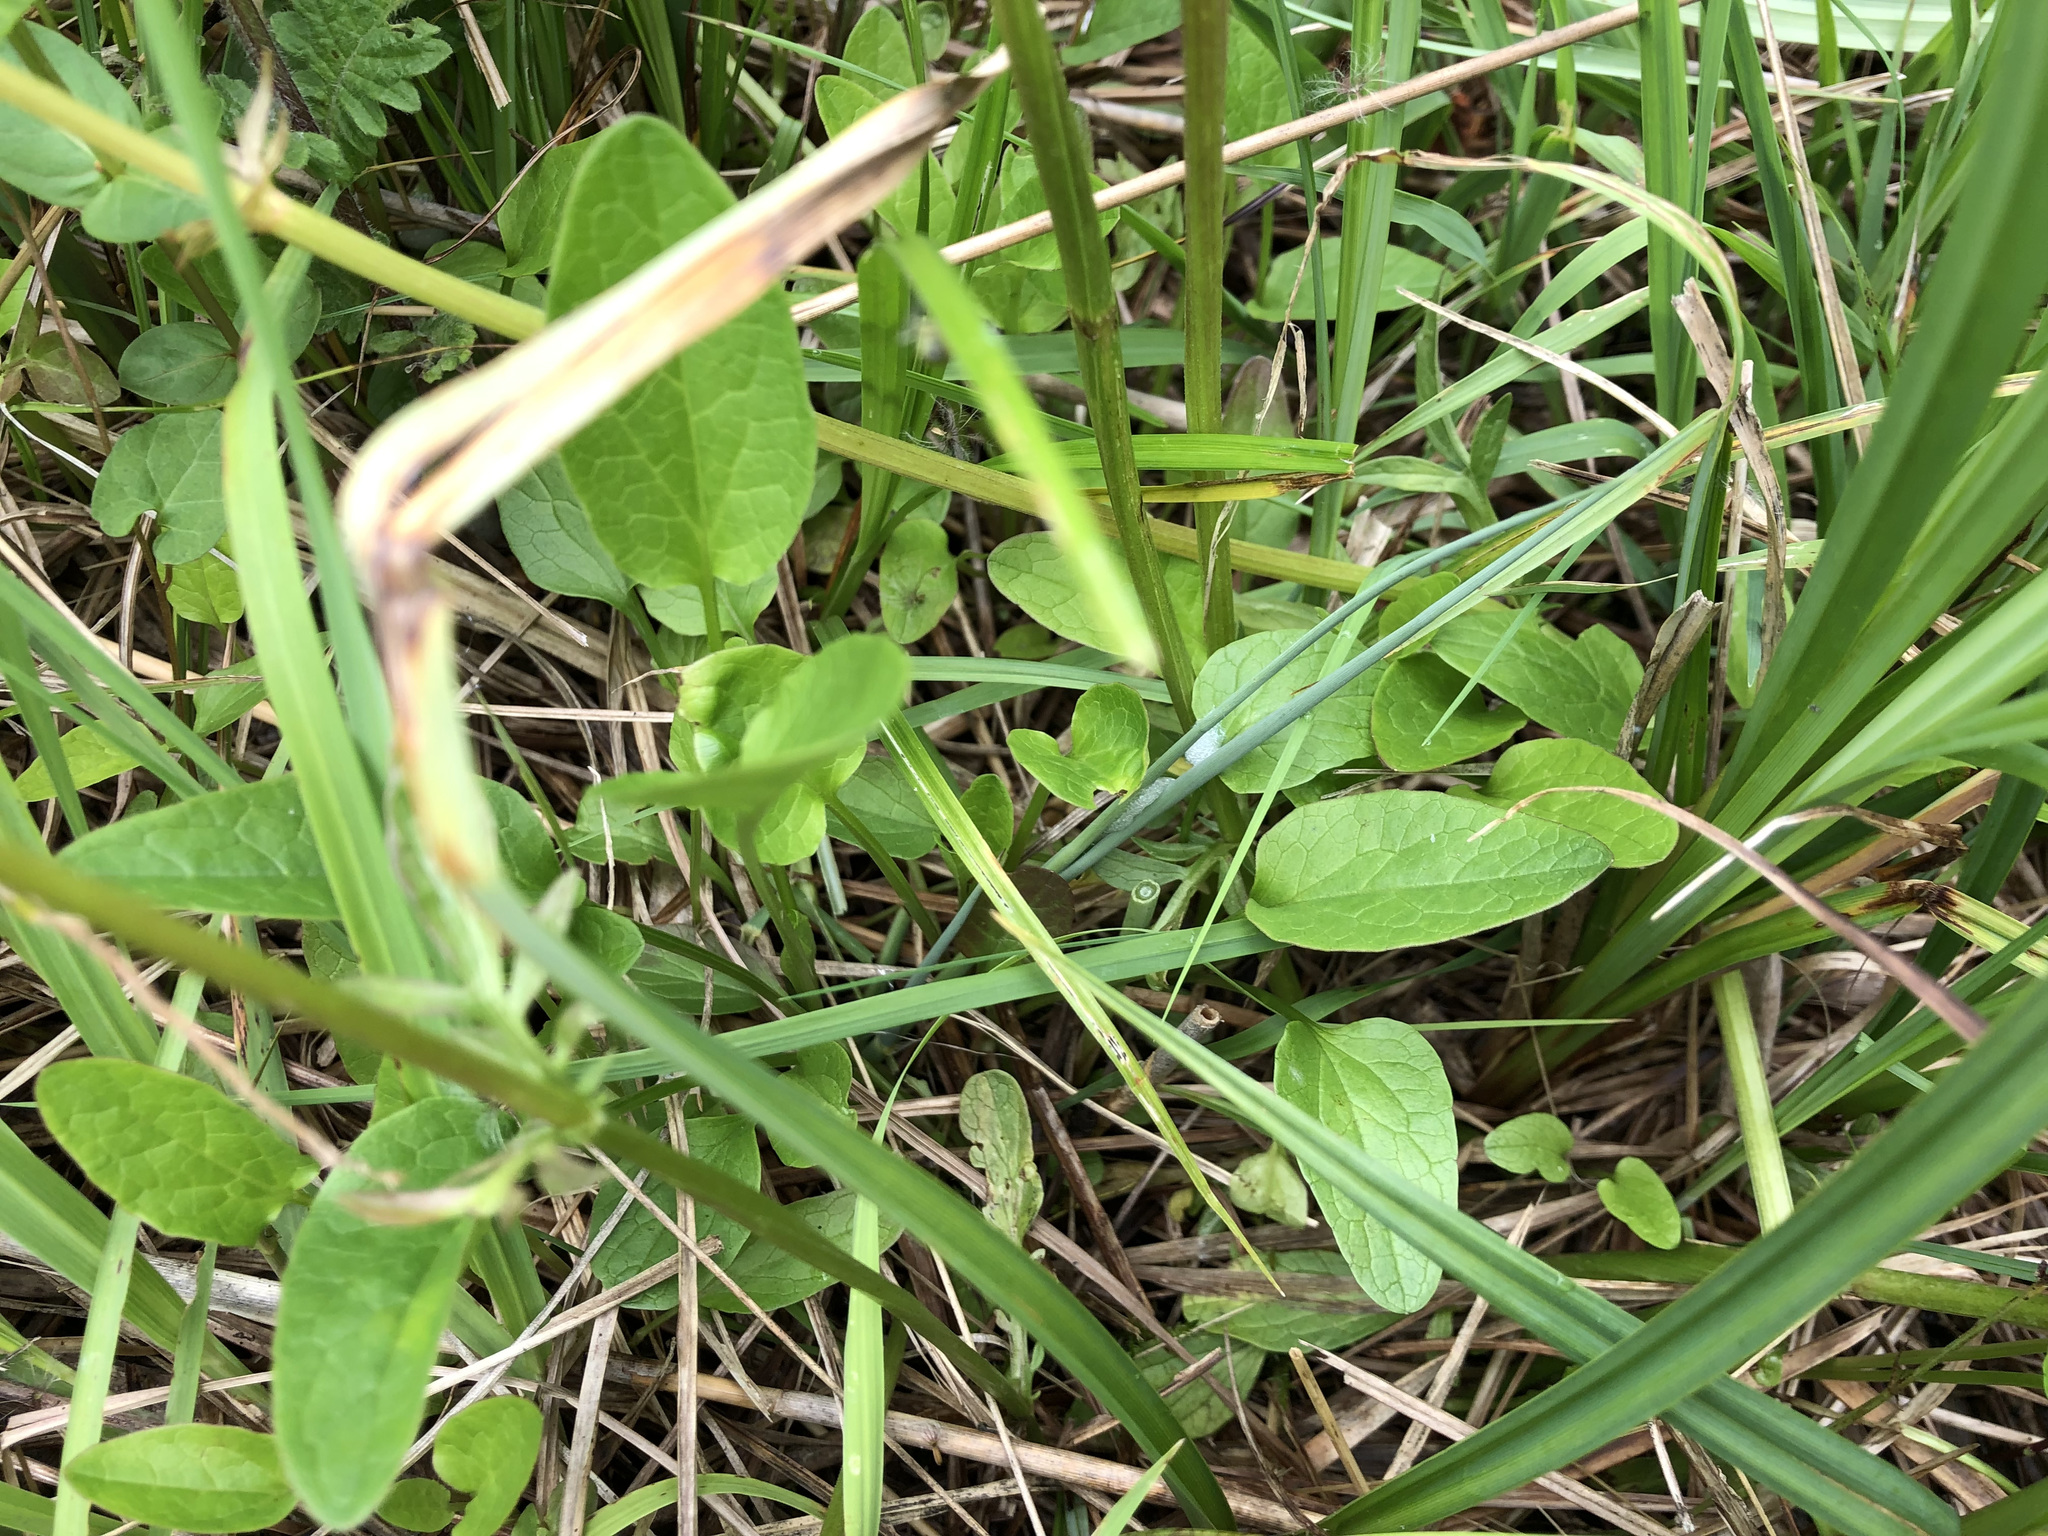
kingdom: Plantae
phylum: Tracheophyta
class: Magnoliopsida
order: Dipsacales
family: Caprifoliaceae
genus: Valeriana
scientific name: Valeriana dioica
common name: Marsh valerian
